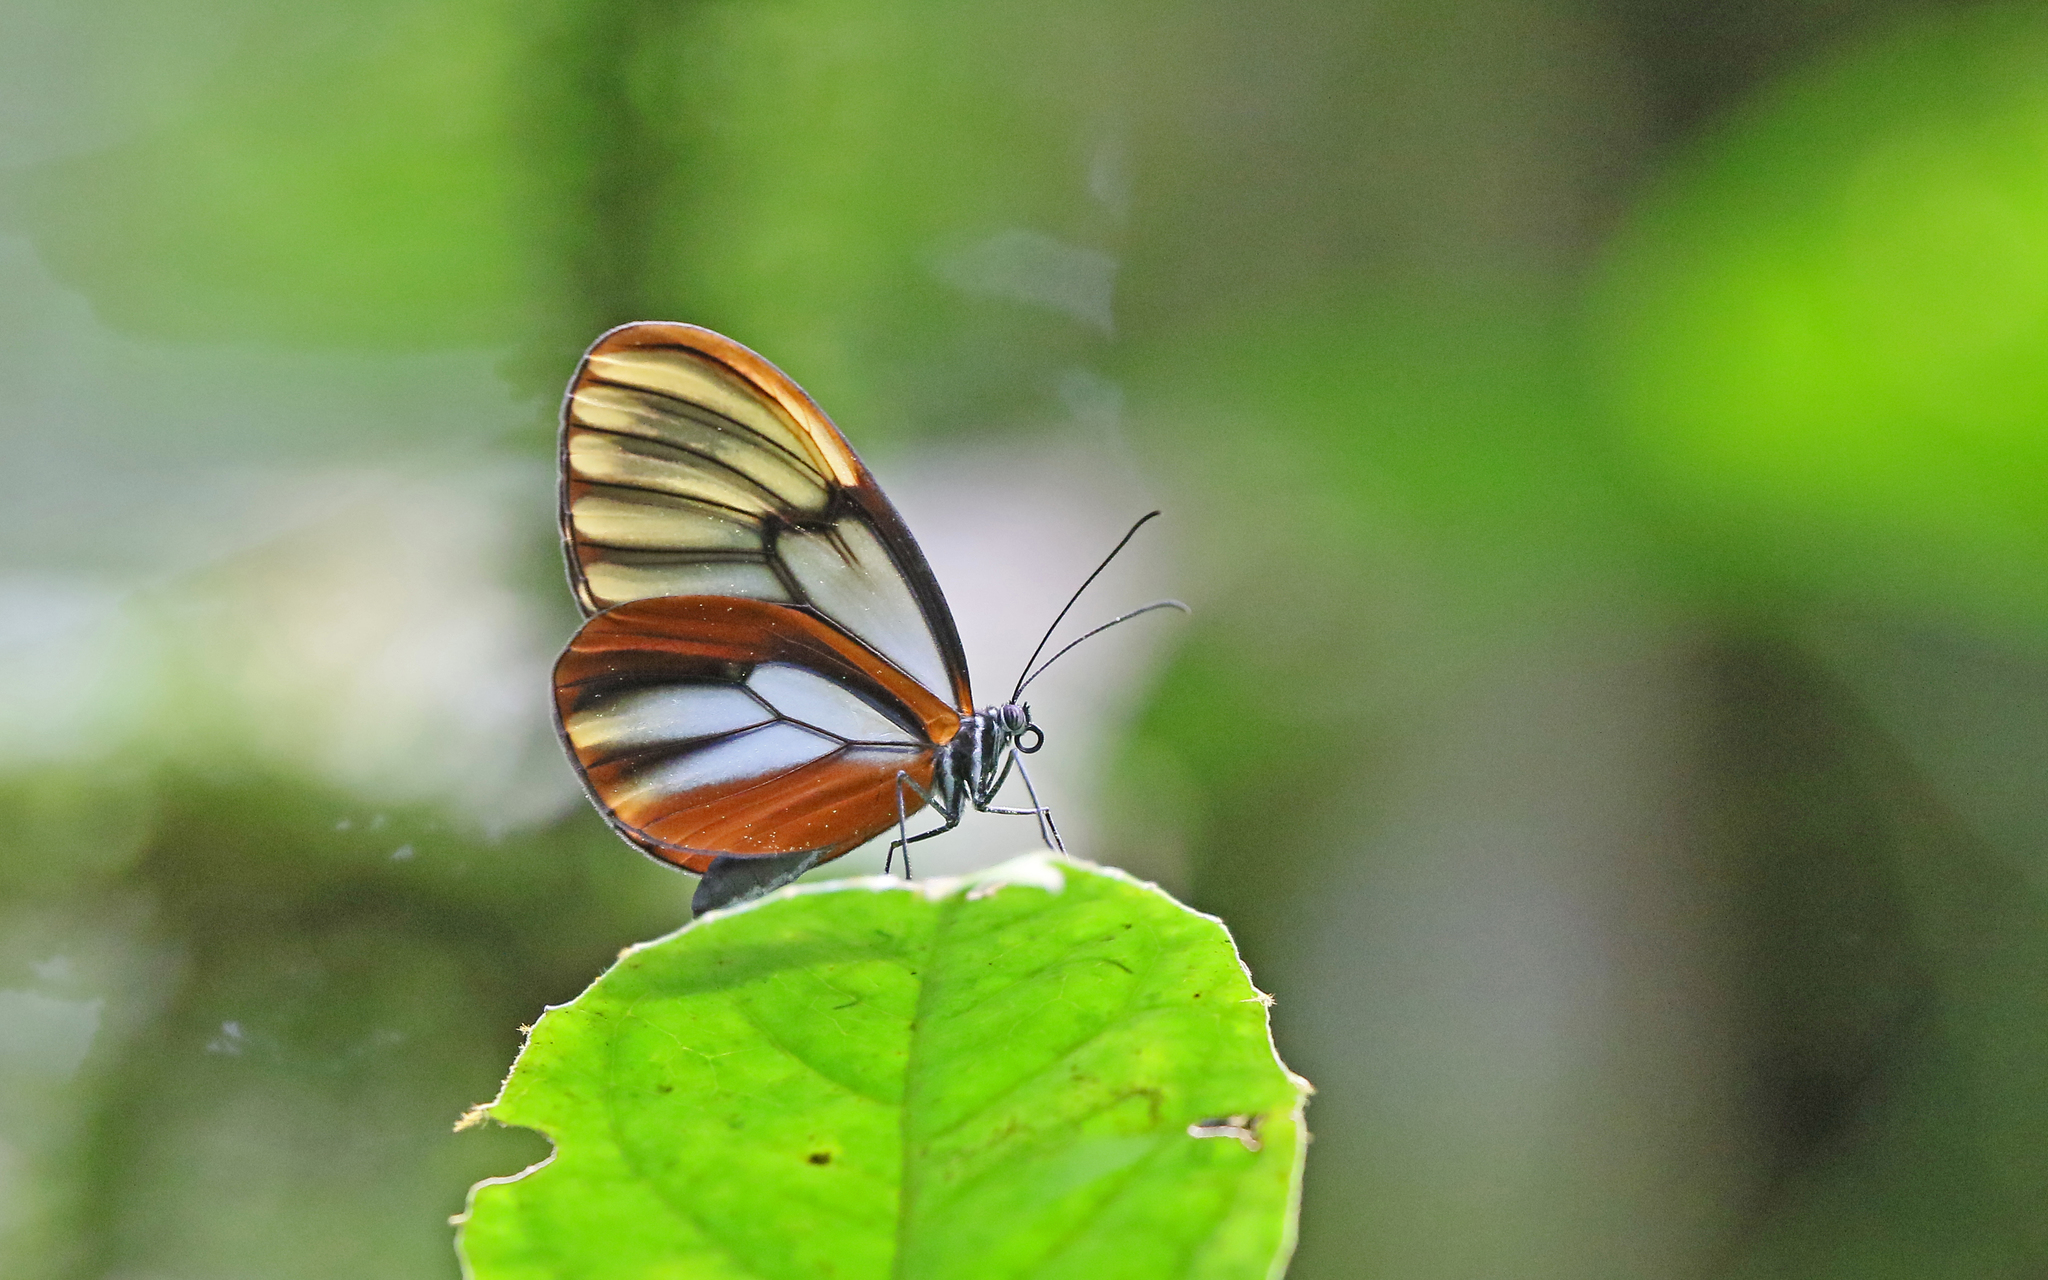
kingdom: Animalia
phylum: Arthropoda
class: Insecta
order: Lepidoptera
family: Nymphalidae
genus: Godyris
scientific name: Godyris duillia
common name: Dazzling glasswing
